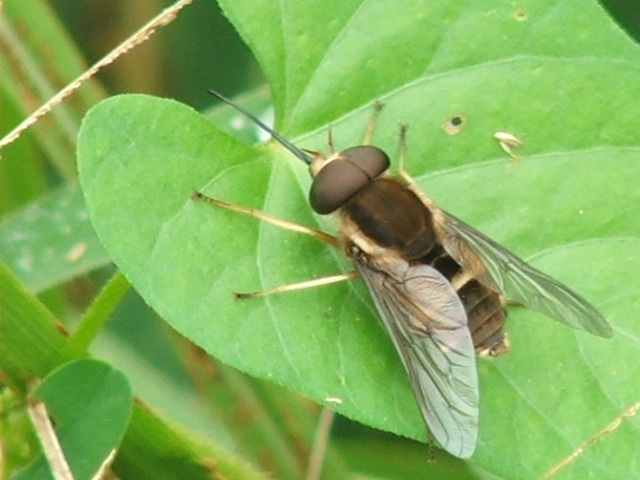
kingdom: Animalia
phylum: Arthropoda
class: Insecta
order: Diptera
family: Tabanidae
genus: Philoliche
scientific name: Philoliche aethiopica
